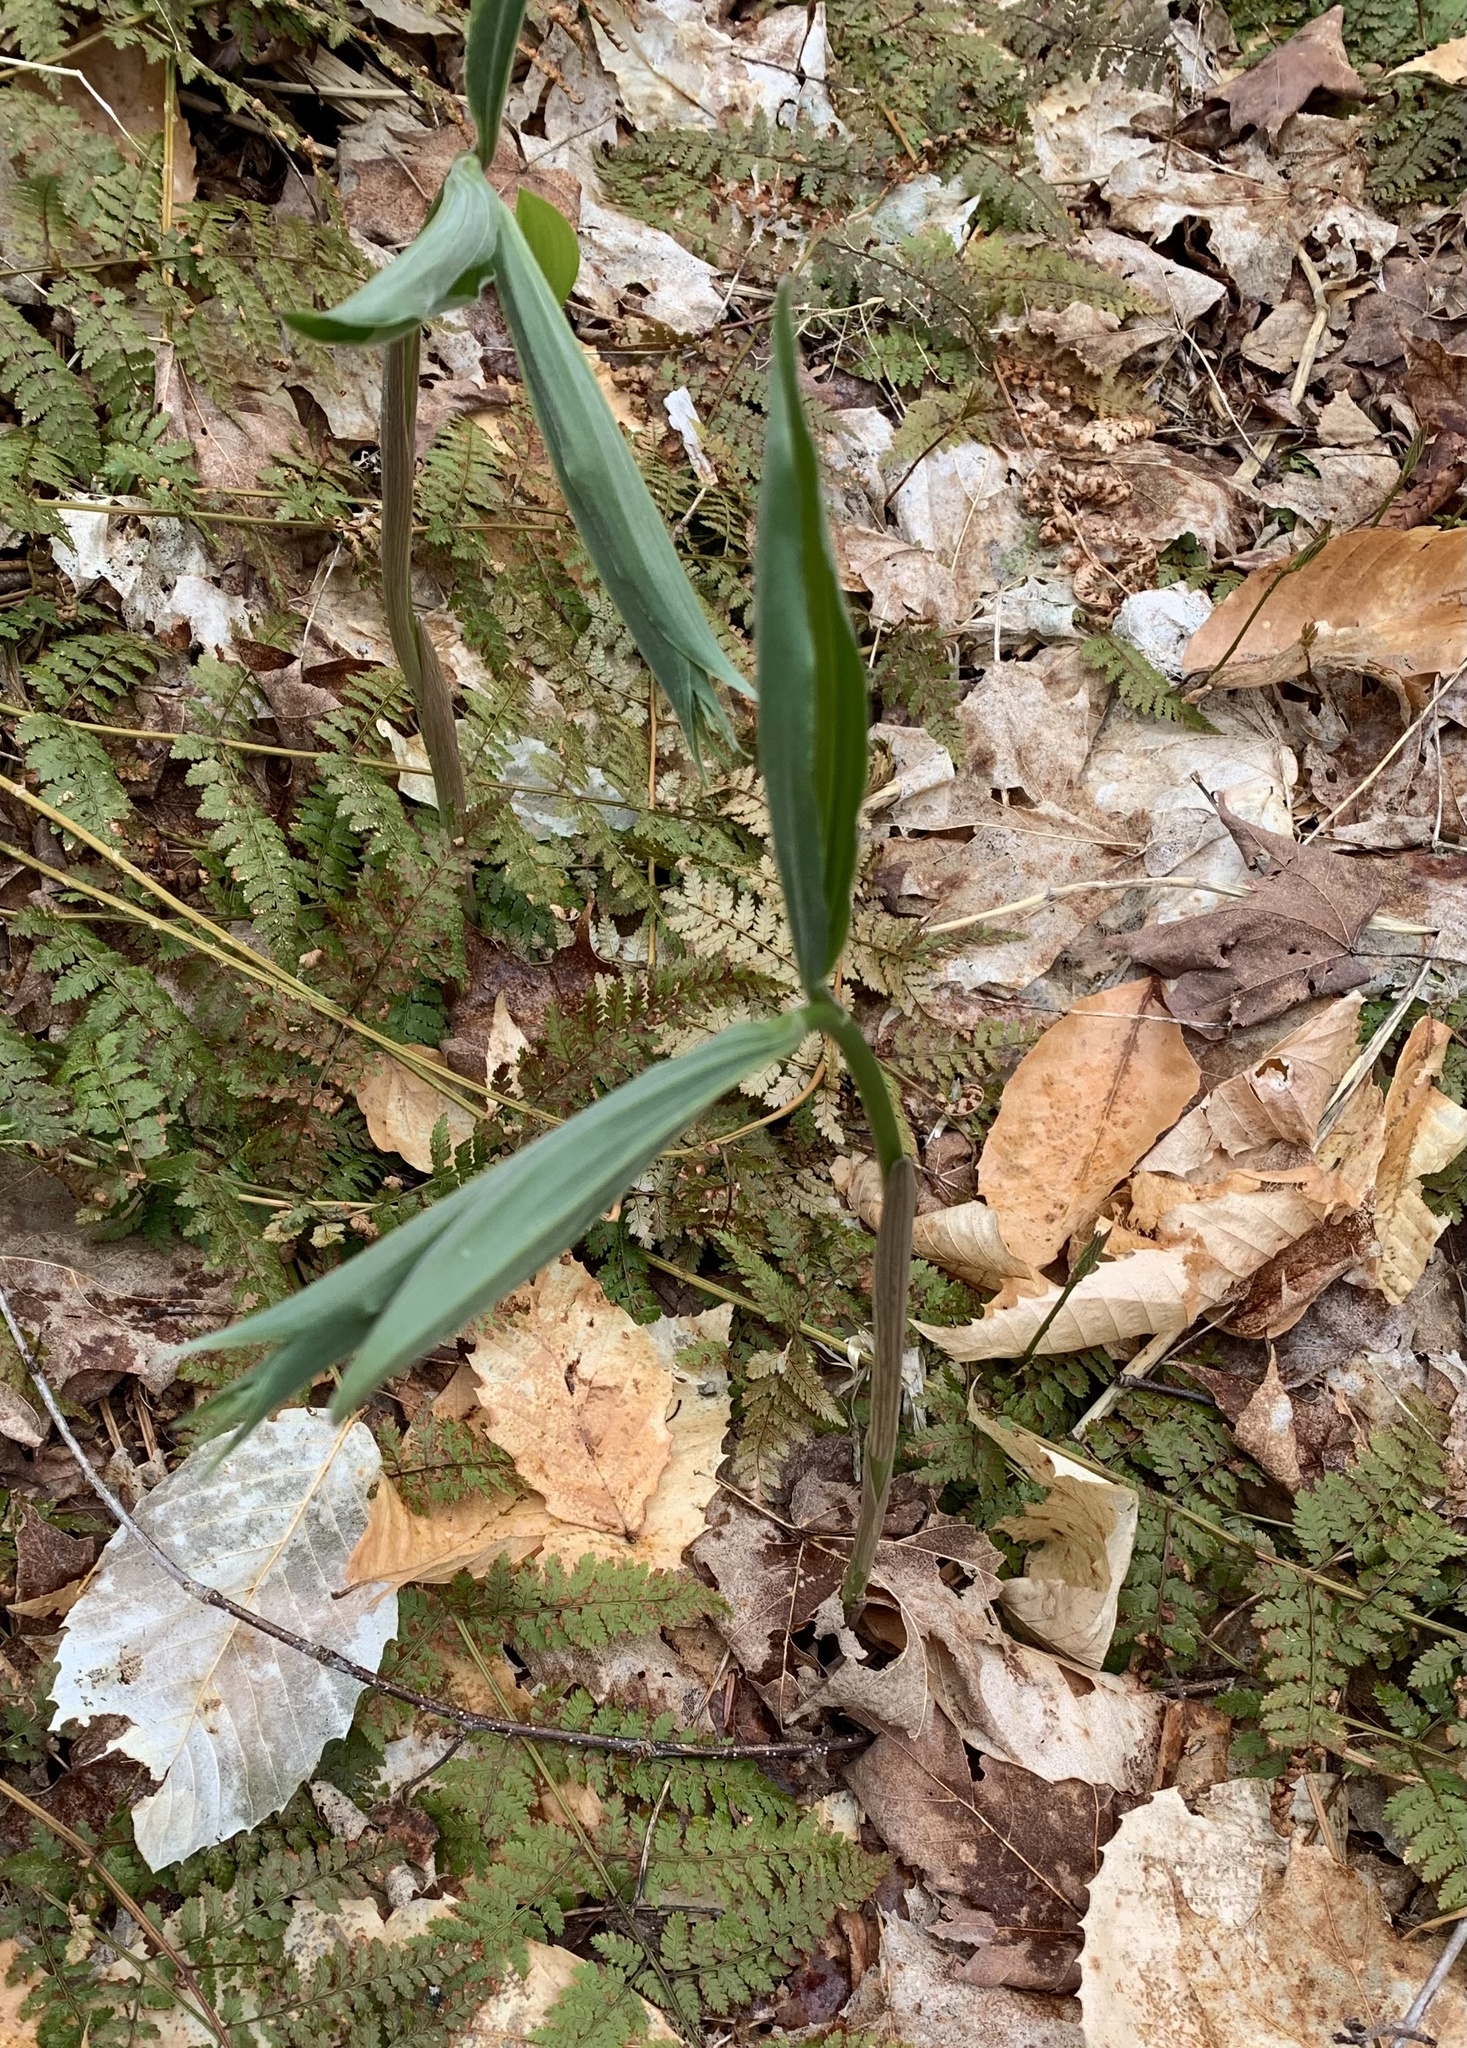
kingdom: Plantae
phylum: Tracheophyta
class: Liliopsida
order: Asparagales
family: Asparagaceae
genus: Maianthemum
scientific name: Maianthemum racemosum
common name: False spikenard
